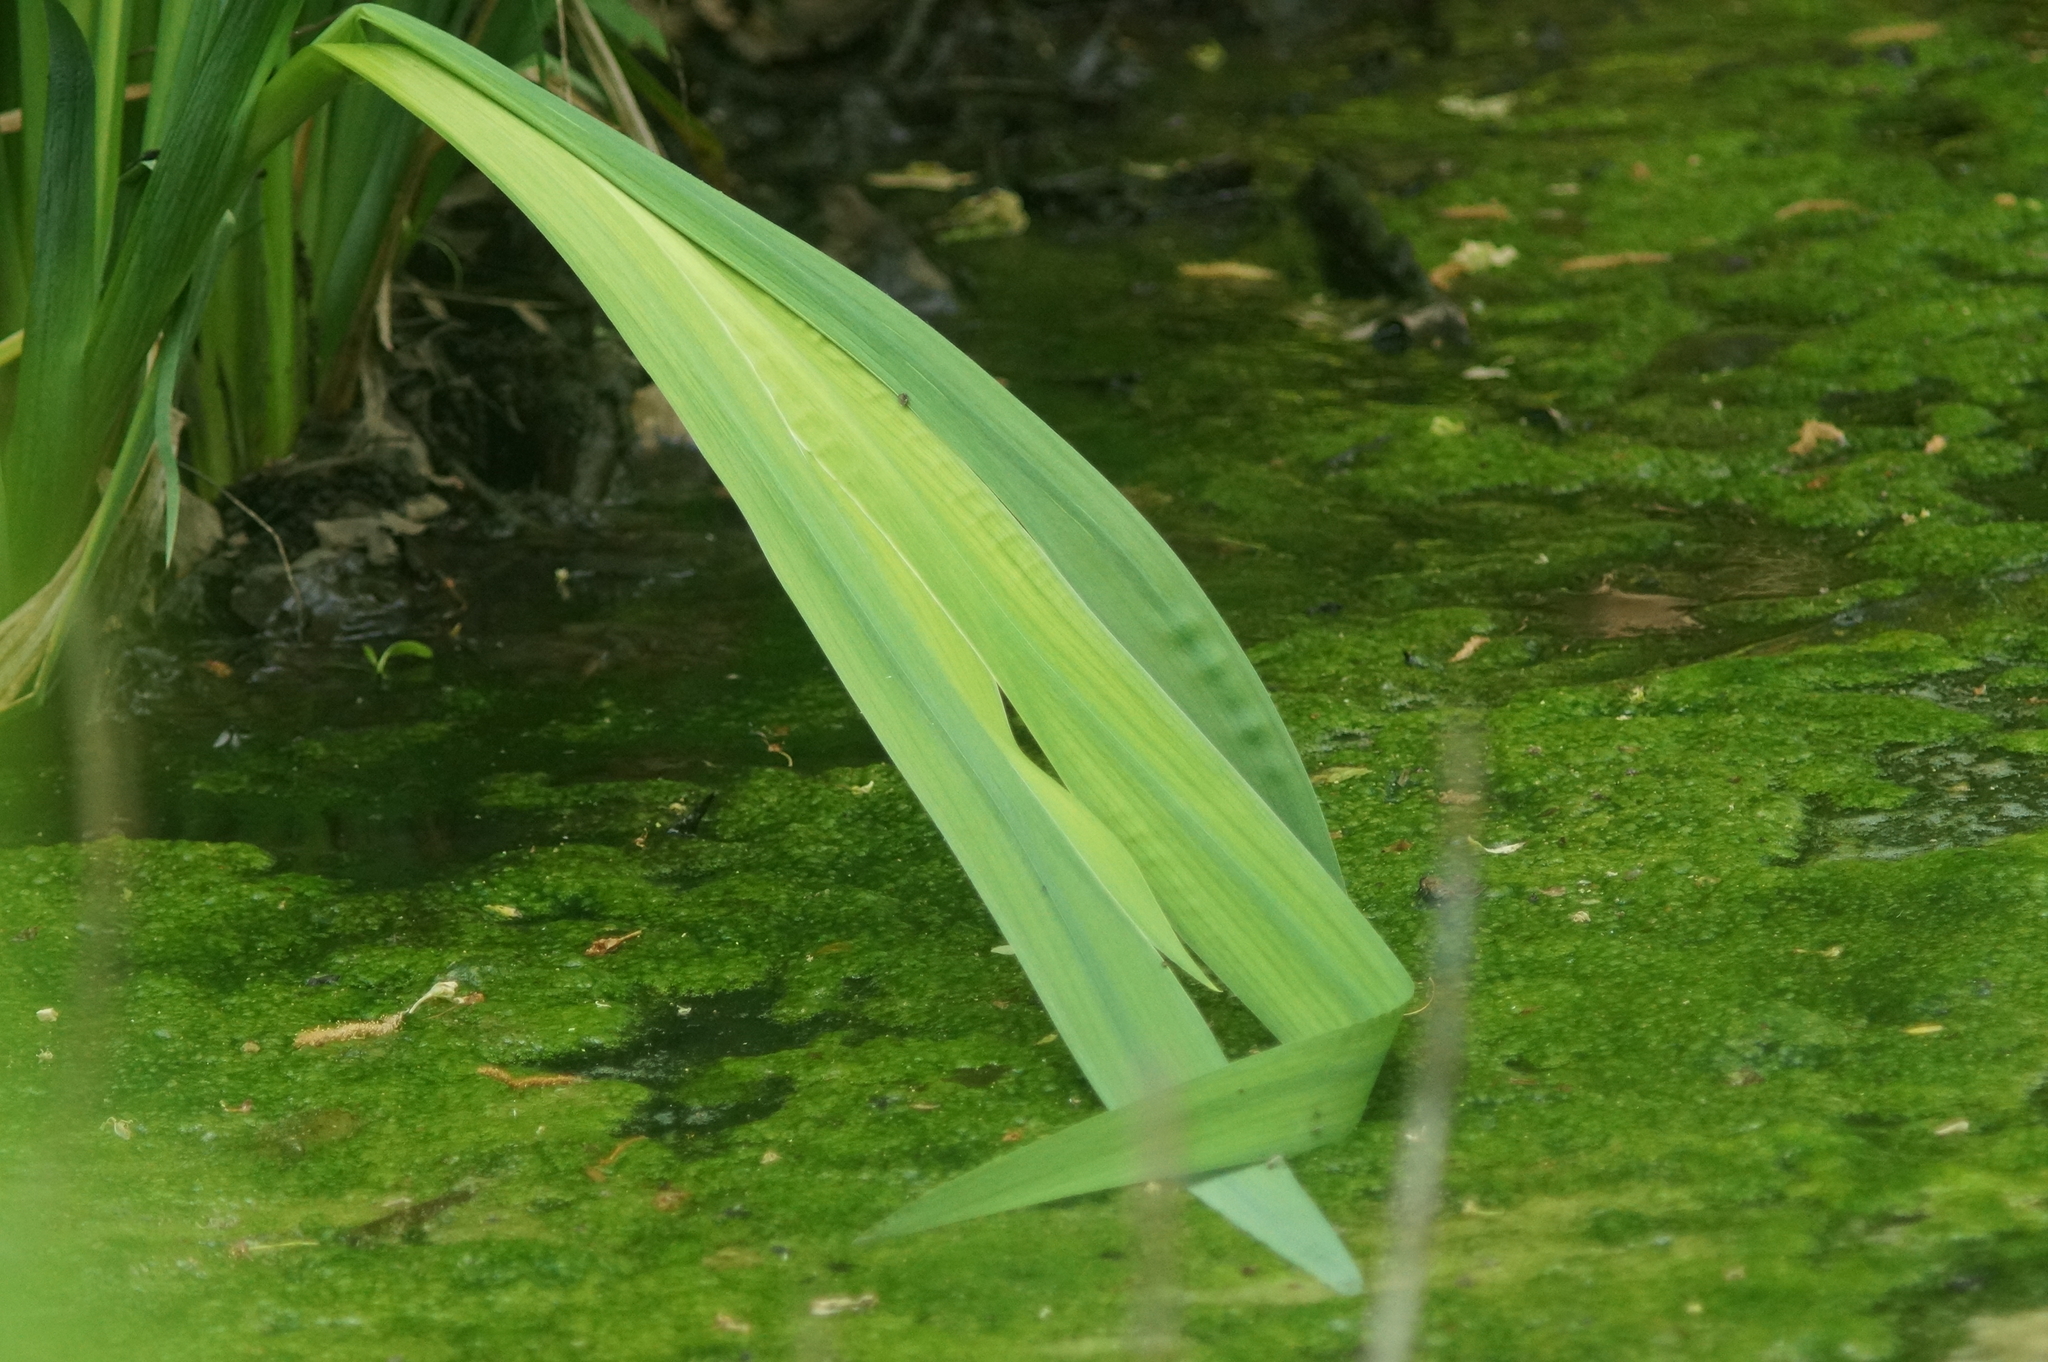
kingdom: Plantae
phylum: Tracheophyta
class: Liliopsida
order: Asparagales
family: Iridaceae
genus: Iris
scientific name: Iris pseudacorus
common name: Yellow flag
